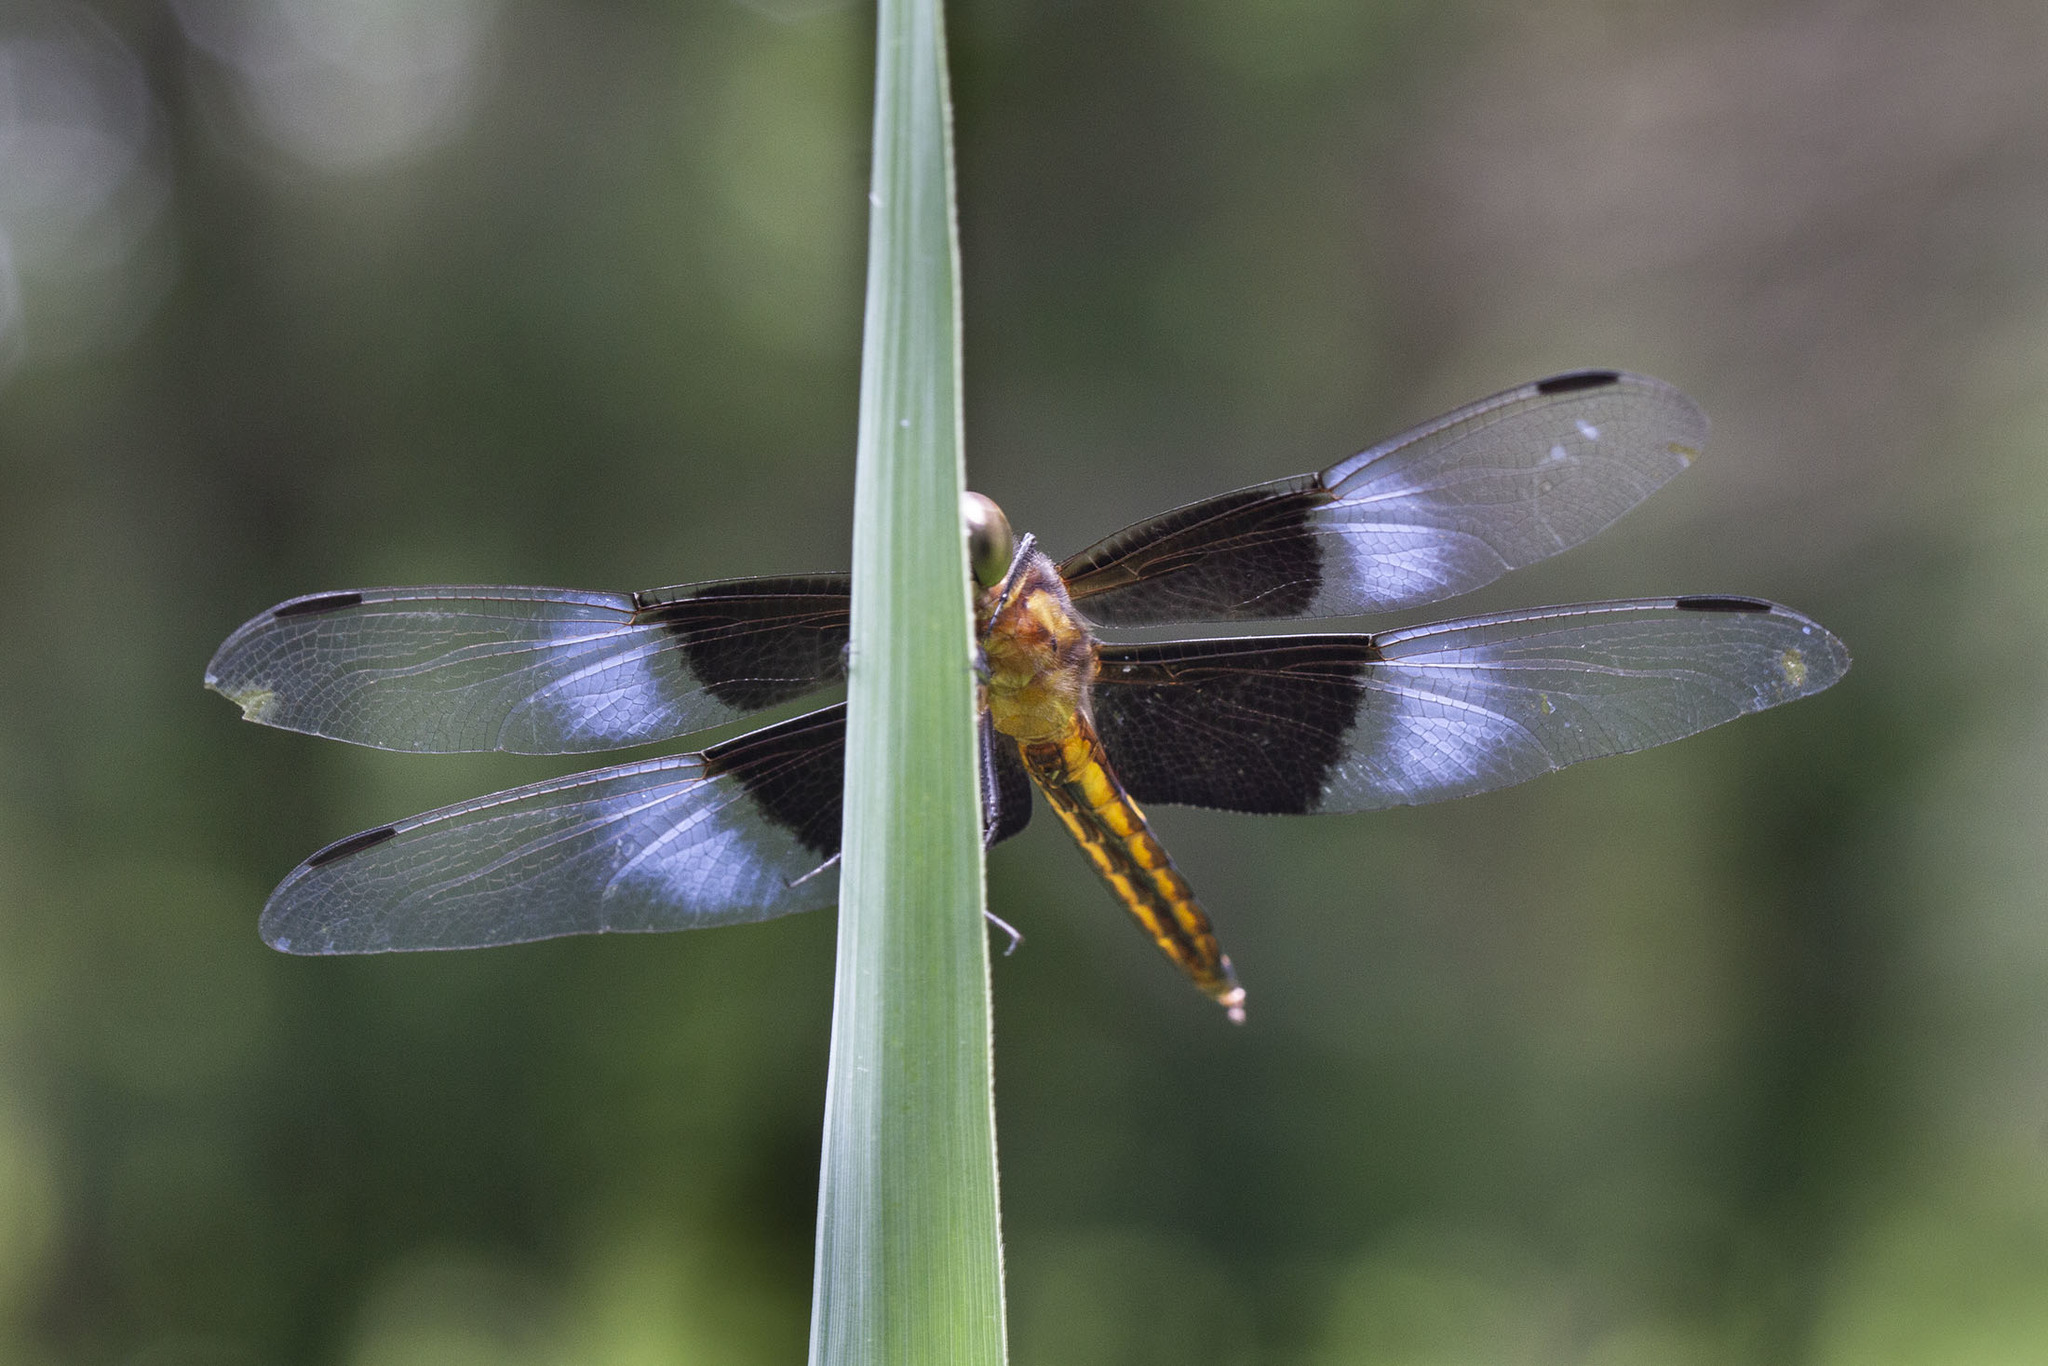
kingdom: Animalia
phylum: Arthropoda
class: Insecta
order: Odonata
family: Libellulidae
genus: Libellula
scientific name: Libellula luctuosa
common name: Widow skimmer
